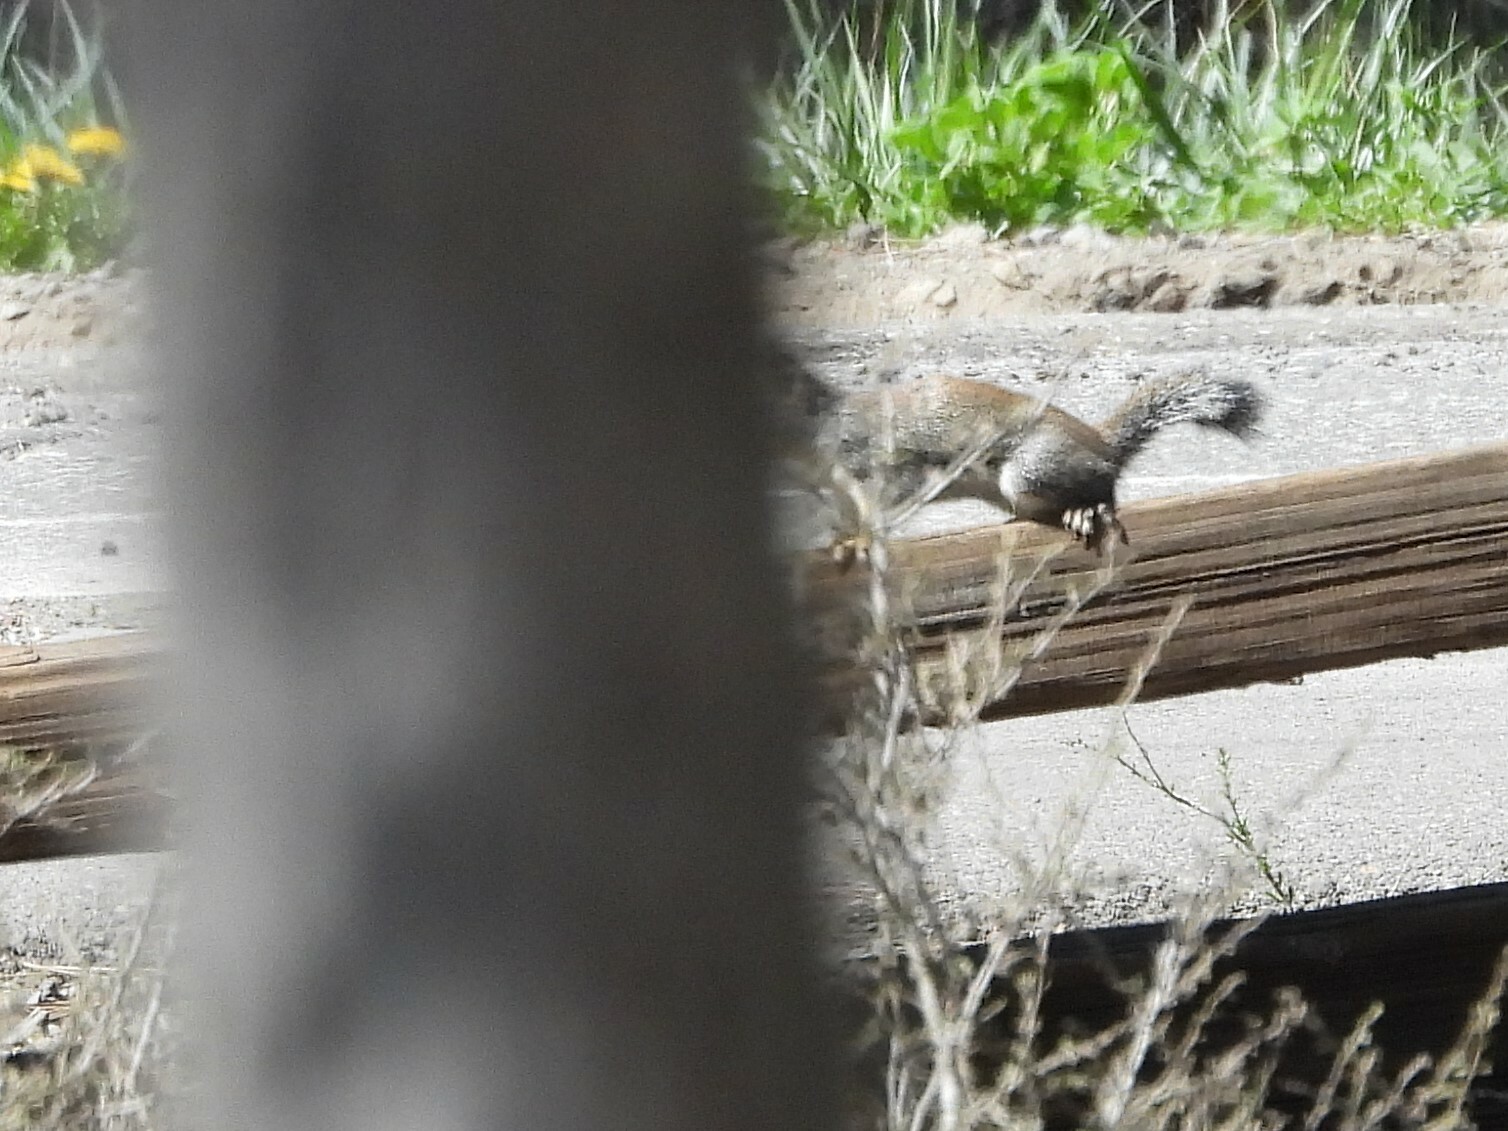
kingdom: Animalia
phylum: Chordata
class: Mammalia
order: Rodentia
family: Sciuridae
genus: Tamiasciurus
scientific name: Tamiasciurus douglasii
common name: Douglas's squirrel
